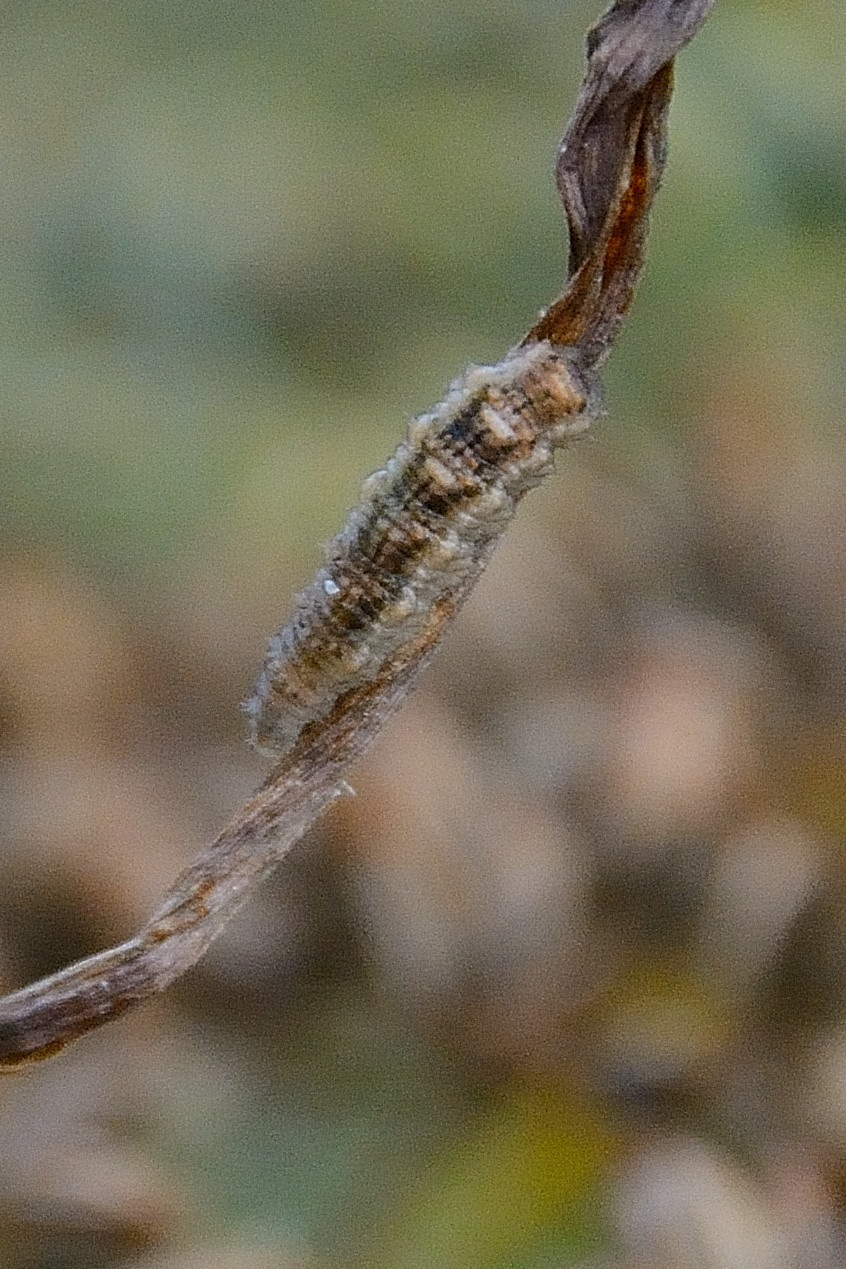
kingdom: Animalia
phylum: Arthropoda
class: Insecta
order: Diptera
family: Syrphidae
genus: Eupeodes
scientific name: Eupeodes
